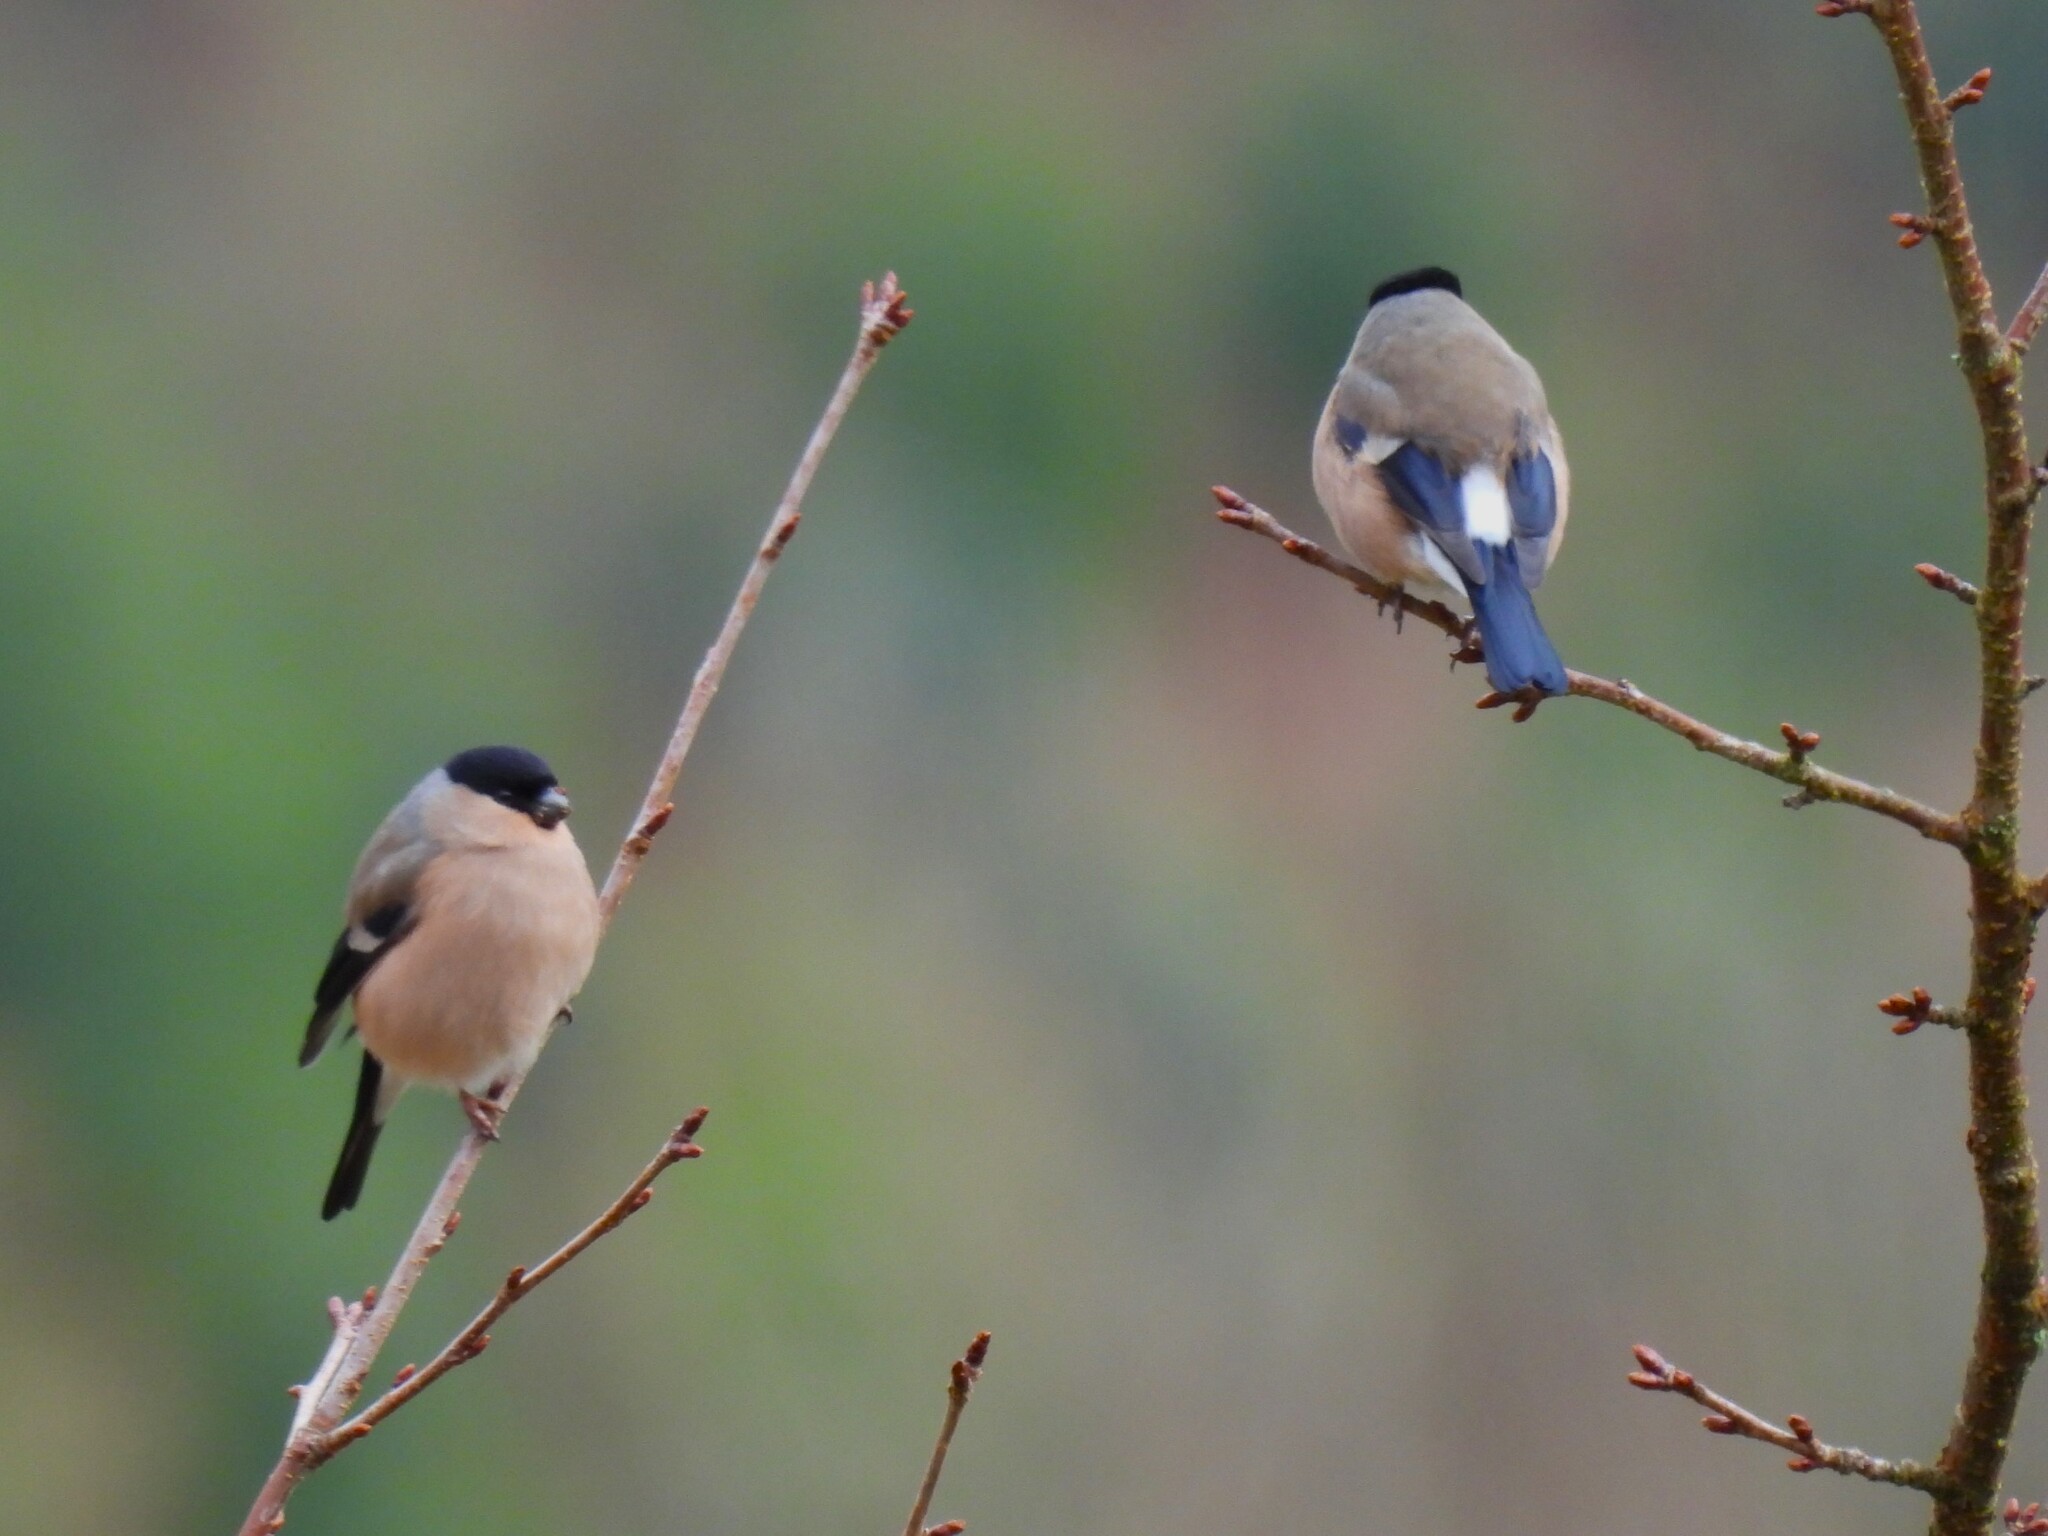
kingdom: Animalia
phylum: Chordata
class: Aves
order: Passeriformes
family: Fringillidae
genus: Pyrrhula
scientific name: Pyrrhula pyrrhula
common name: Eurasian bullfinch
